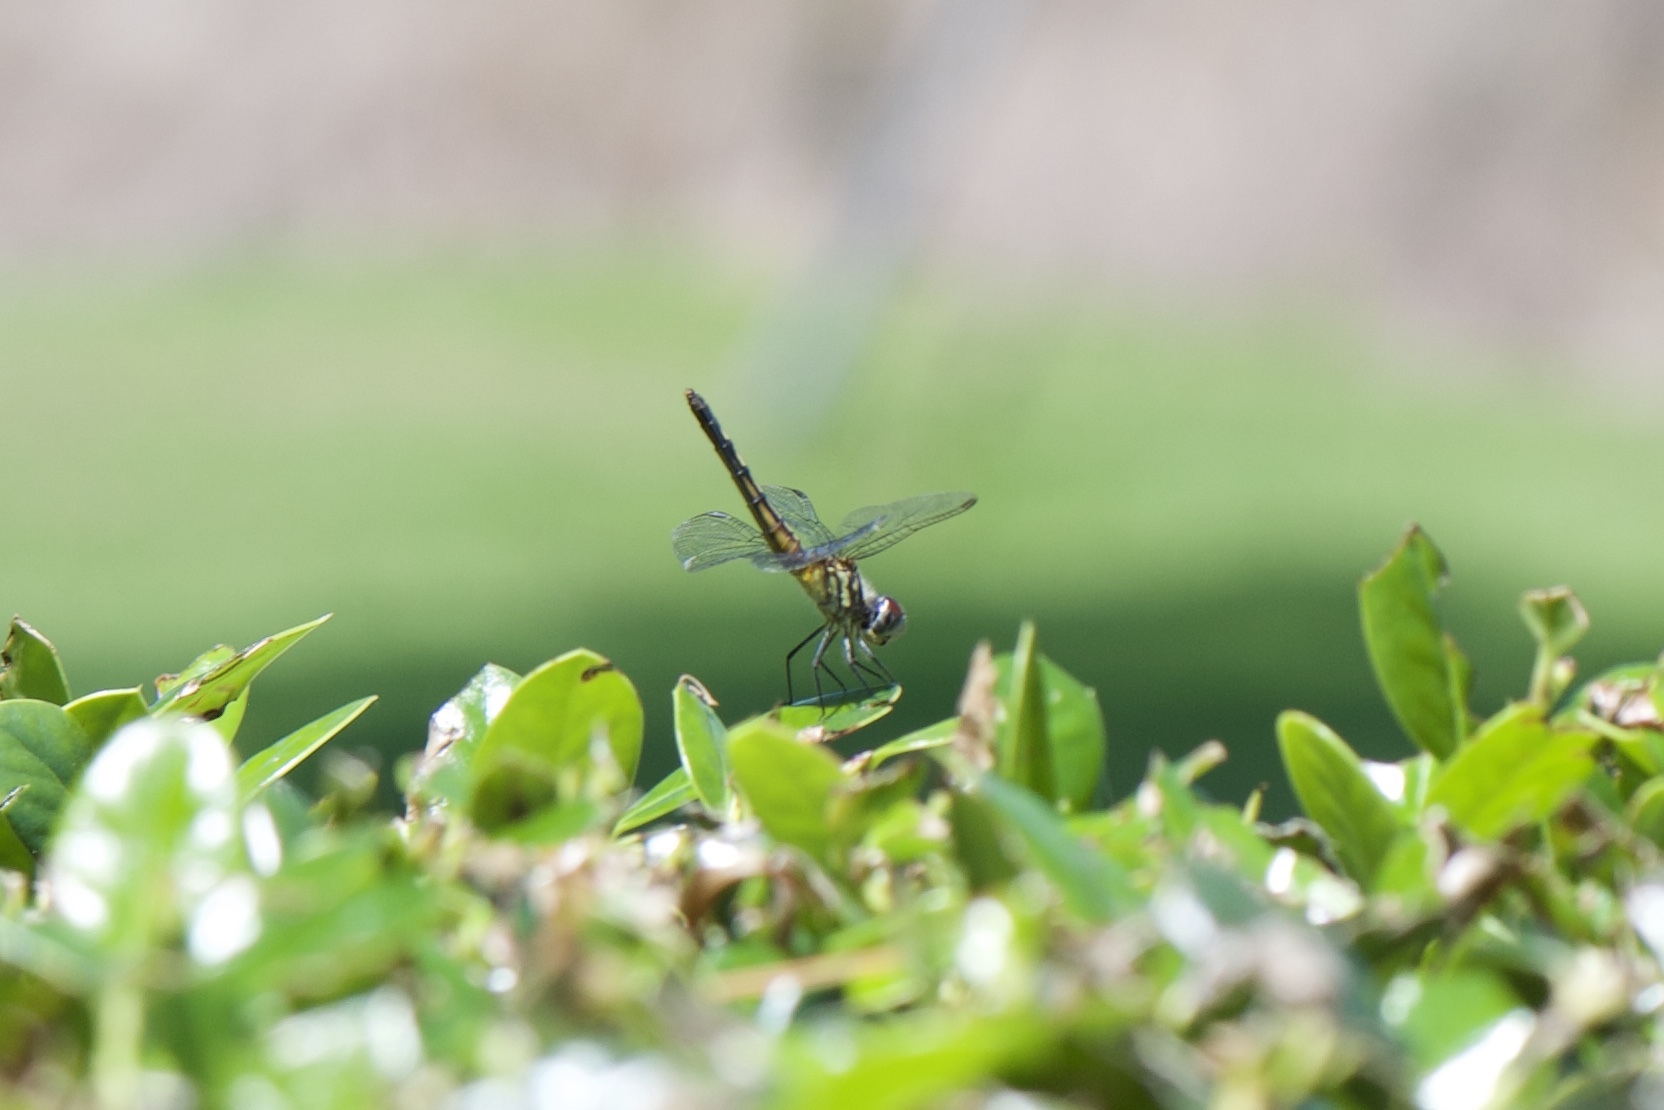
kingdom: Animalia
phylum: Arthropoda
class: Insecta
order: Odonata
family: Libellulidae
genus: Pachydiplax
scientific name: Pachydiplax longipennis
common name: Blue dasher
